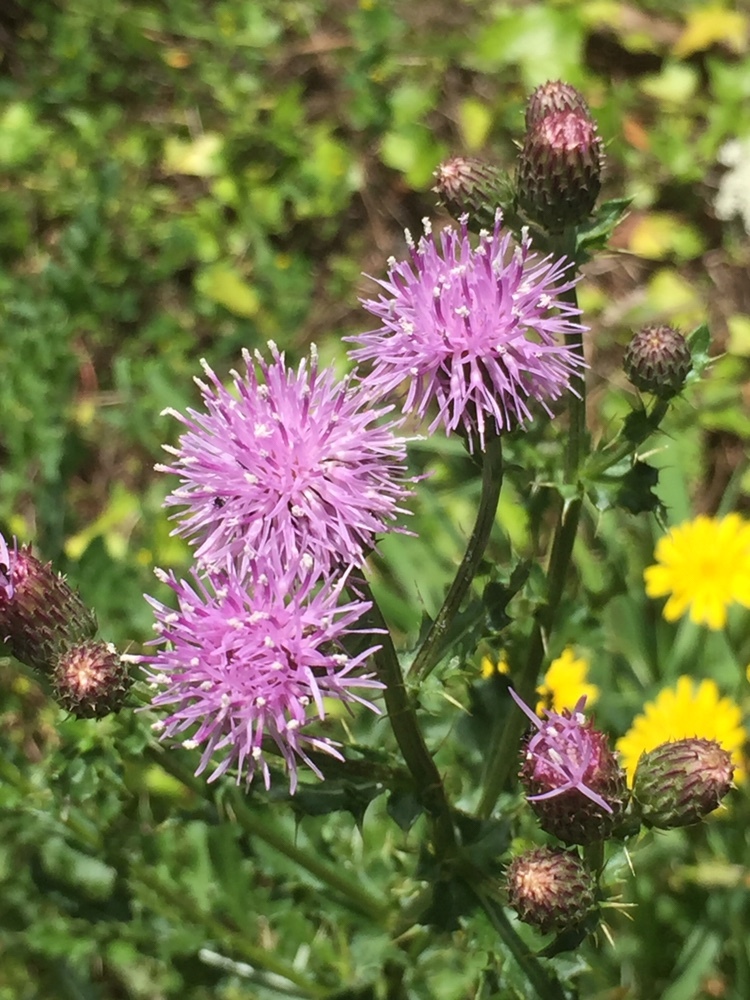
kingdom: Plantae
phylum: Tracheophyta
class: Magnoliopsida
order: Asterales
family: Asteraceae
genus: Cirsium
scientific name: Cirsium arvense
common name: Creeping thistle
